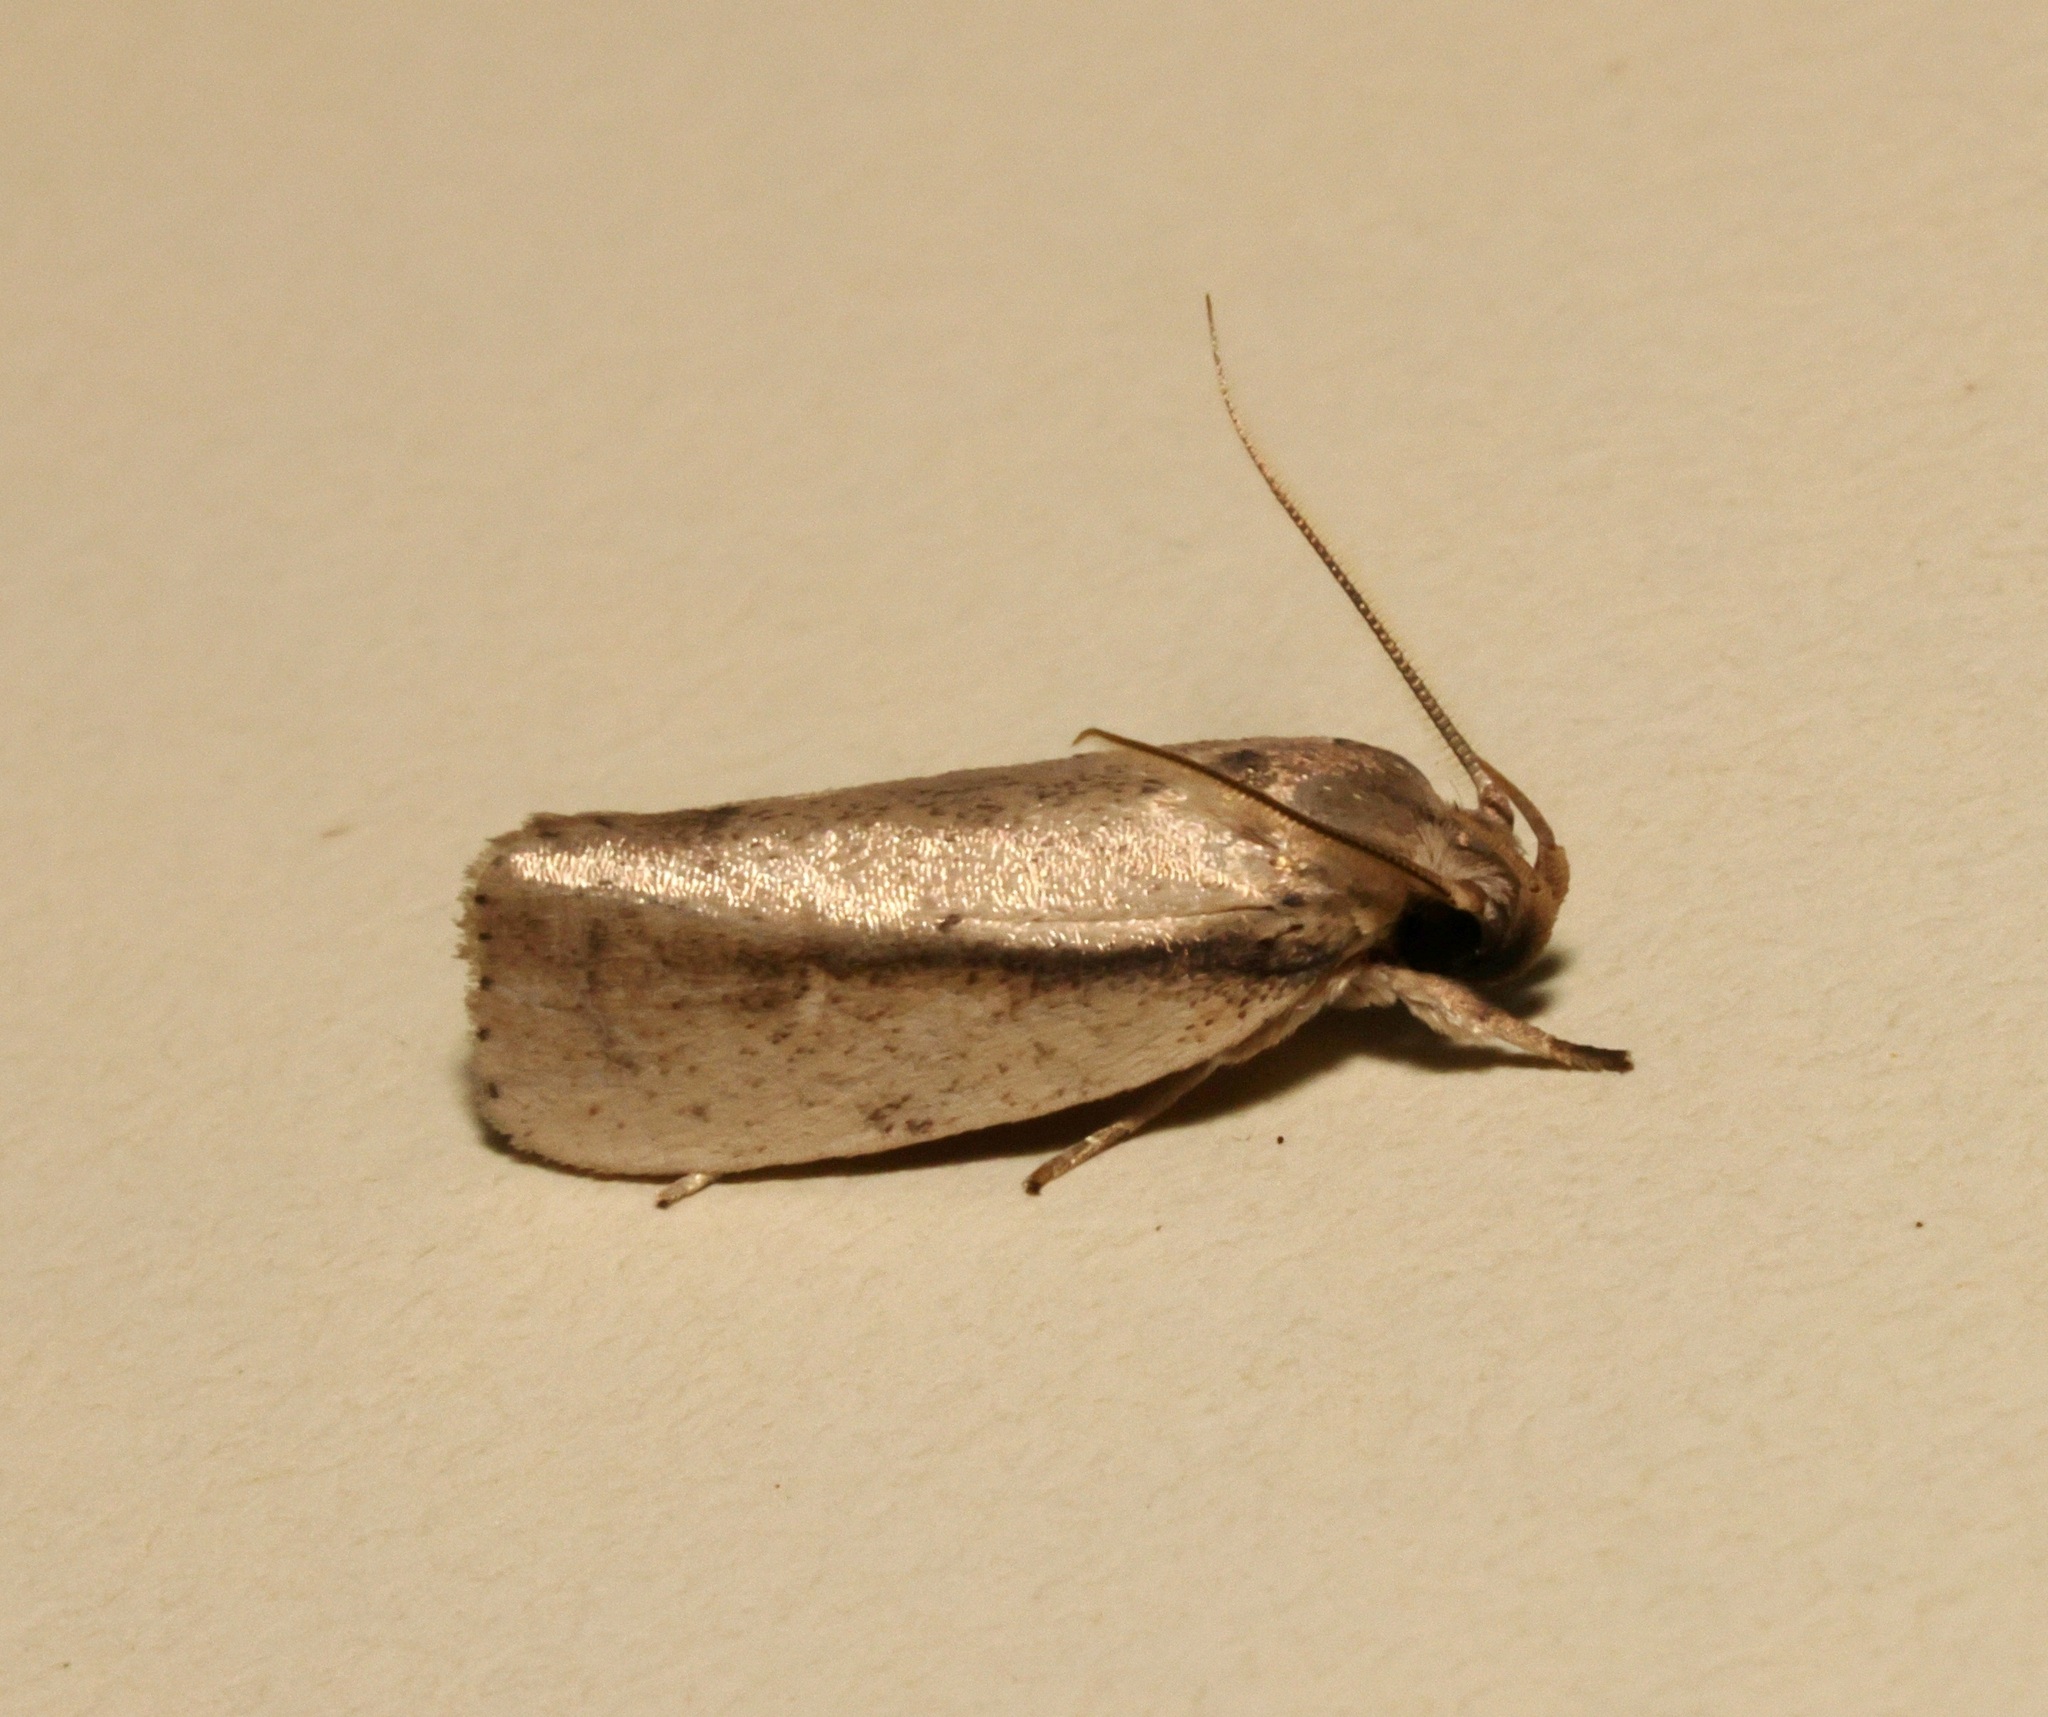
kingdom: Animalia
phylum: Arthropoda
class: Insecta
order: Lepidoptera
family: Xyloryctidae
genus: Neospastis
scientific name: Neospastis sinensis
